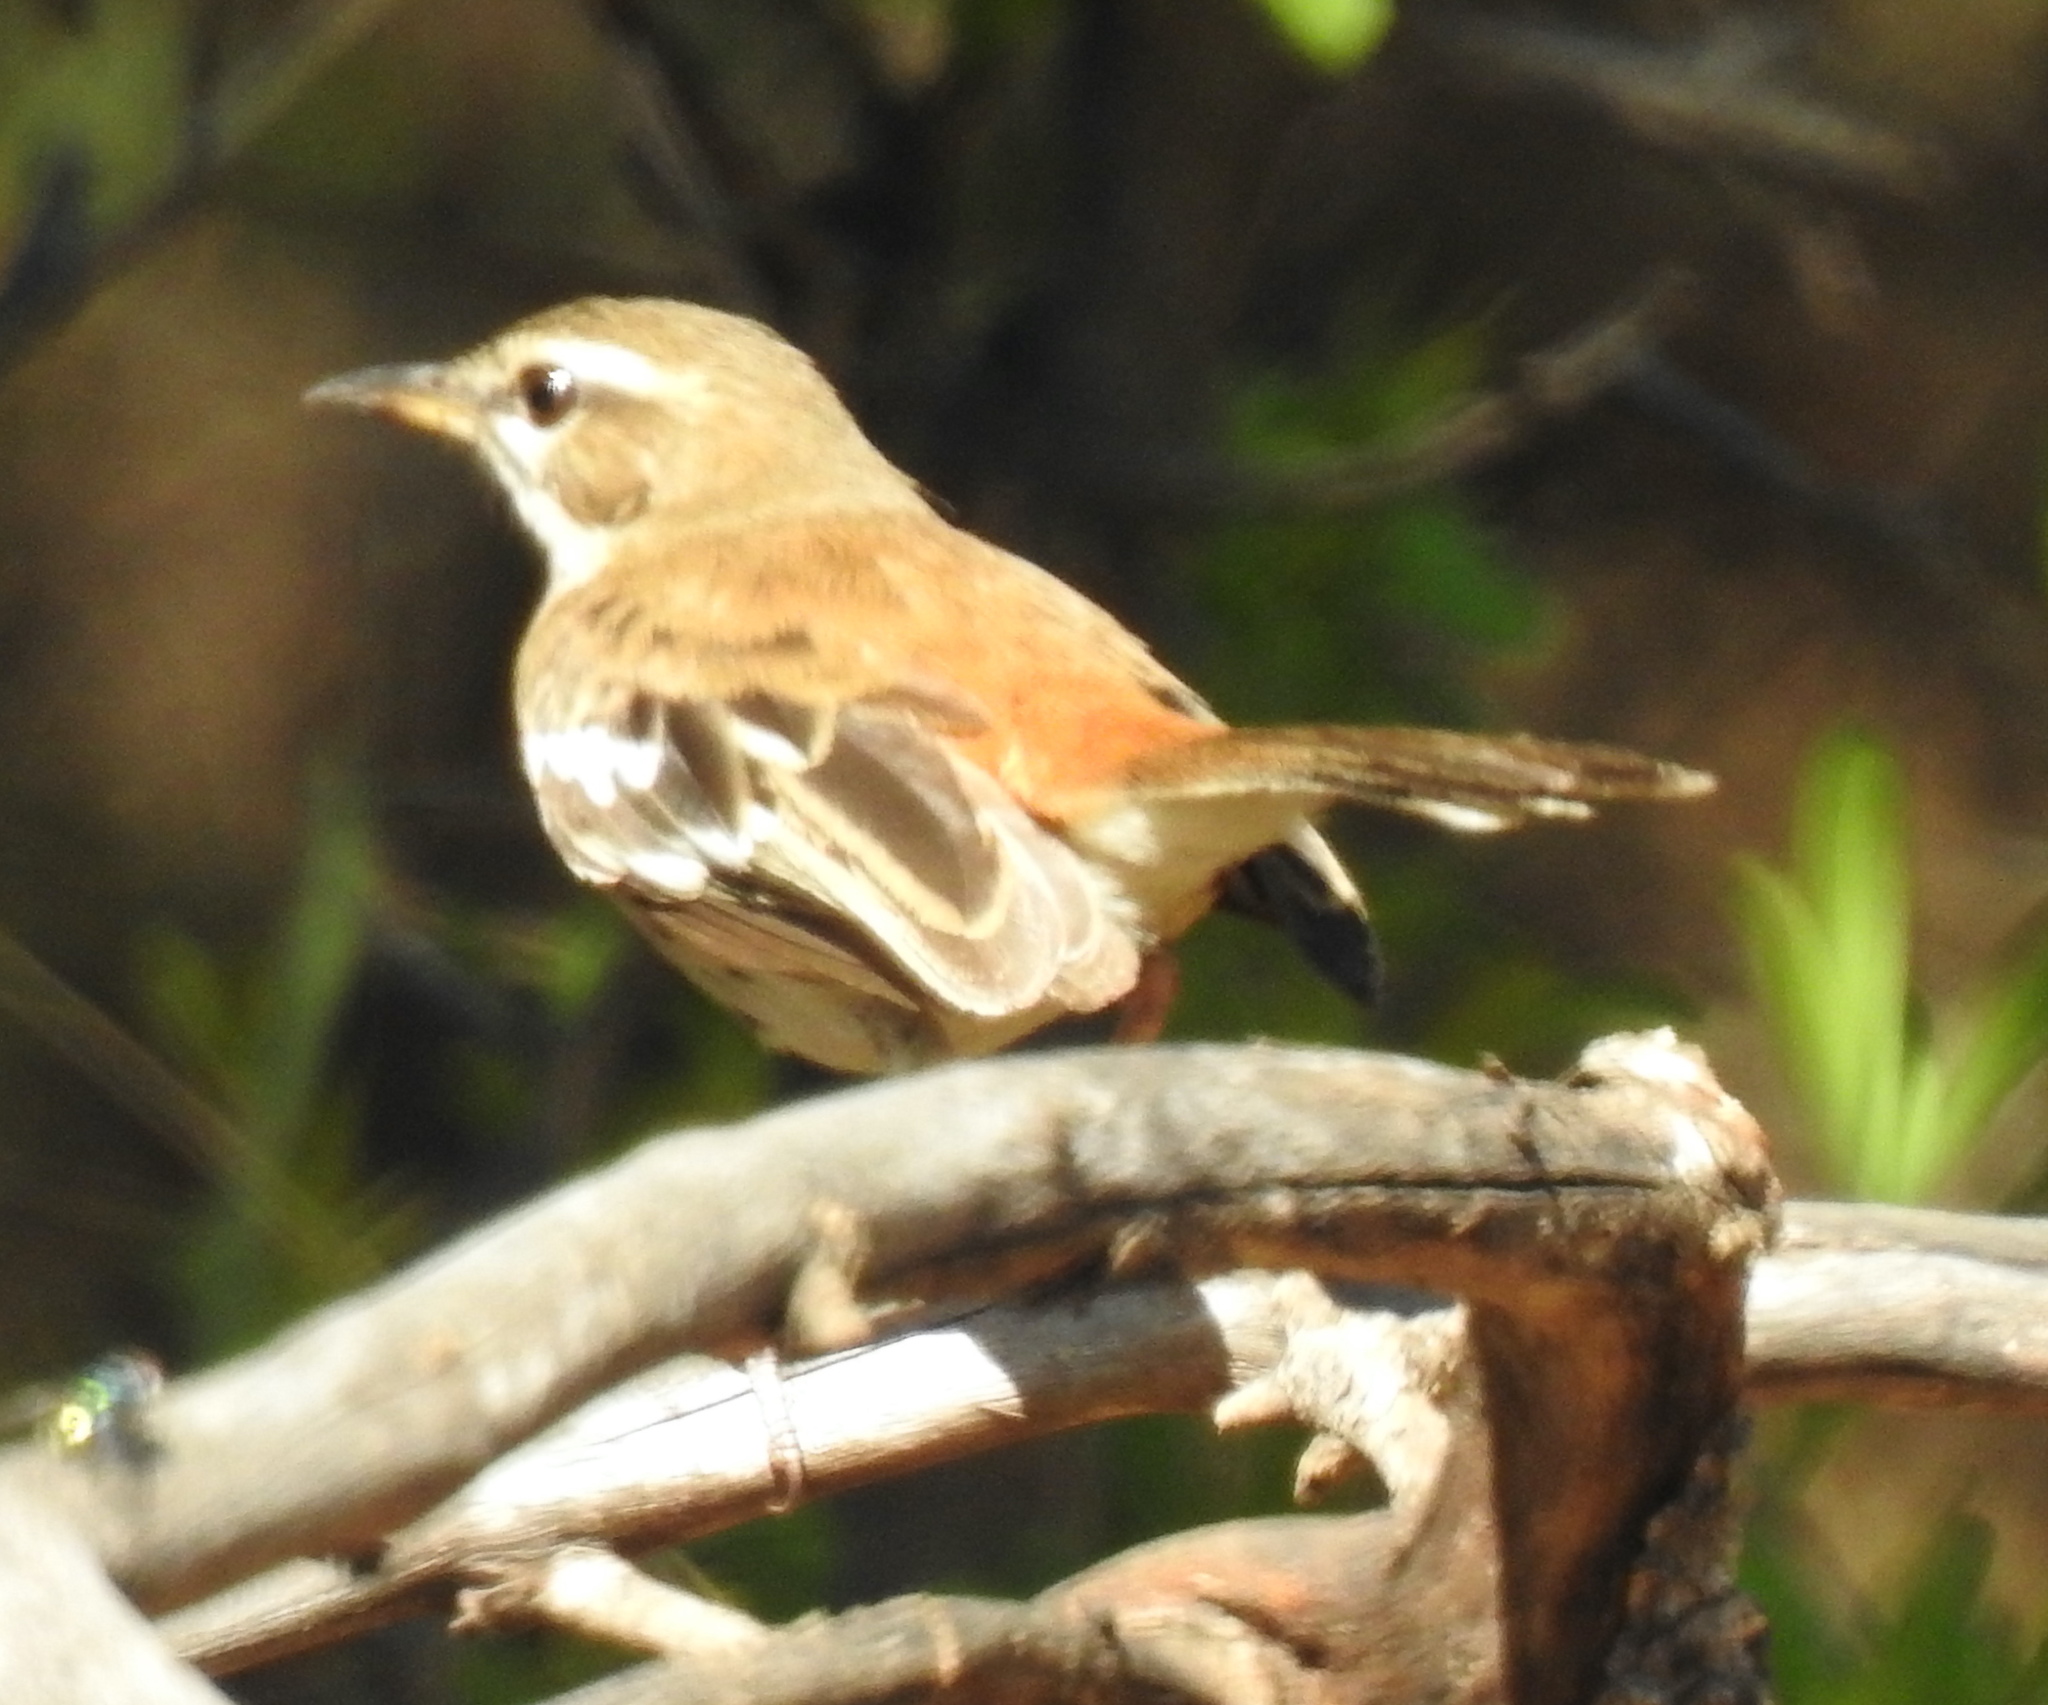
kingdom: Animalia
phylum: Chordata
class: Aves
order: Passeriformes
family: Muscicapidae
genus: Erythropygia
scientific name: Erythropygia leucophrys
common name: White-browed scrub robin
